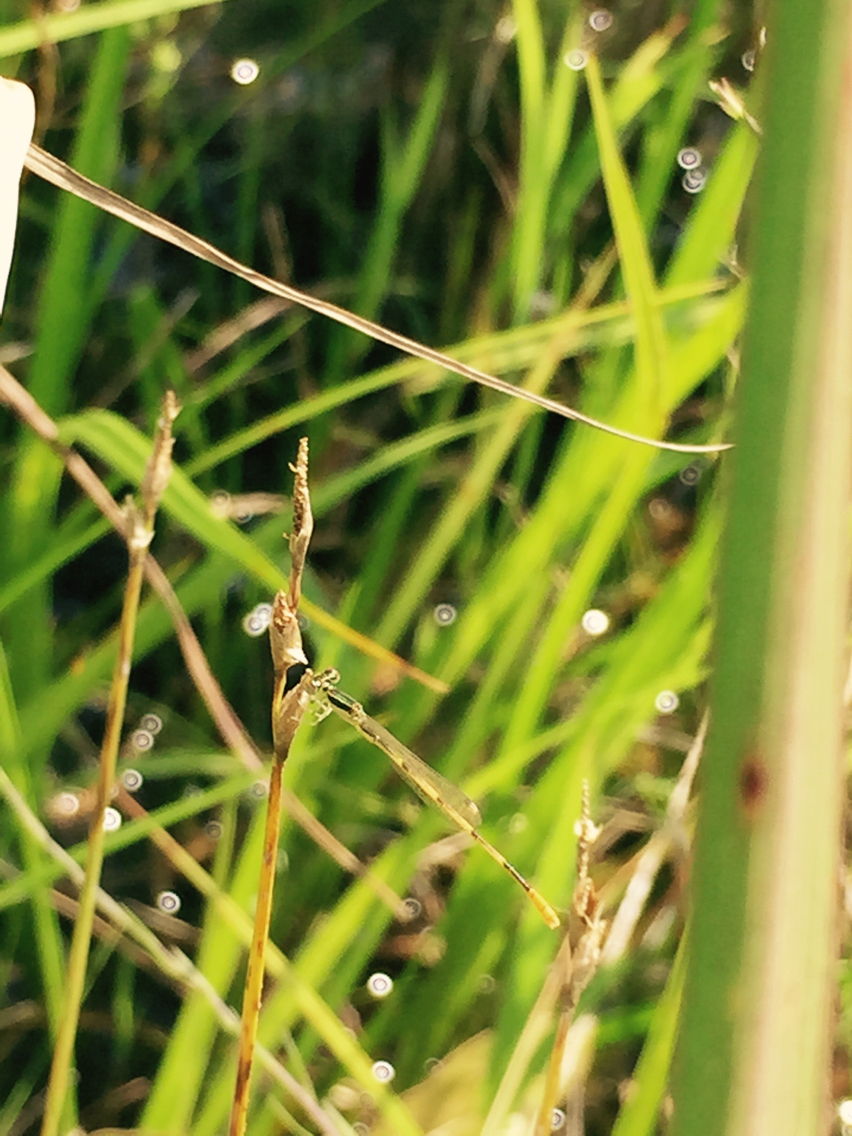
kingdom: Animalia
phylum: Arthropoda
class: Insecta
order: Odonata
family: Coenagrionidae
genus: Ischnura
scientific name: Ischnura hastata
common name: Citrine forktail
